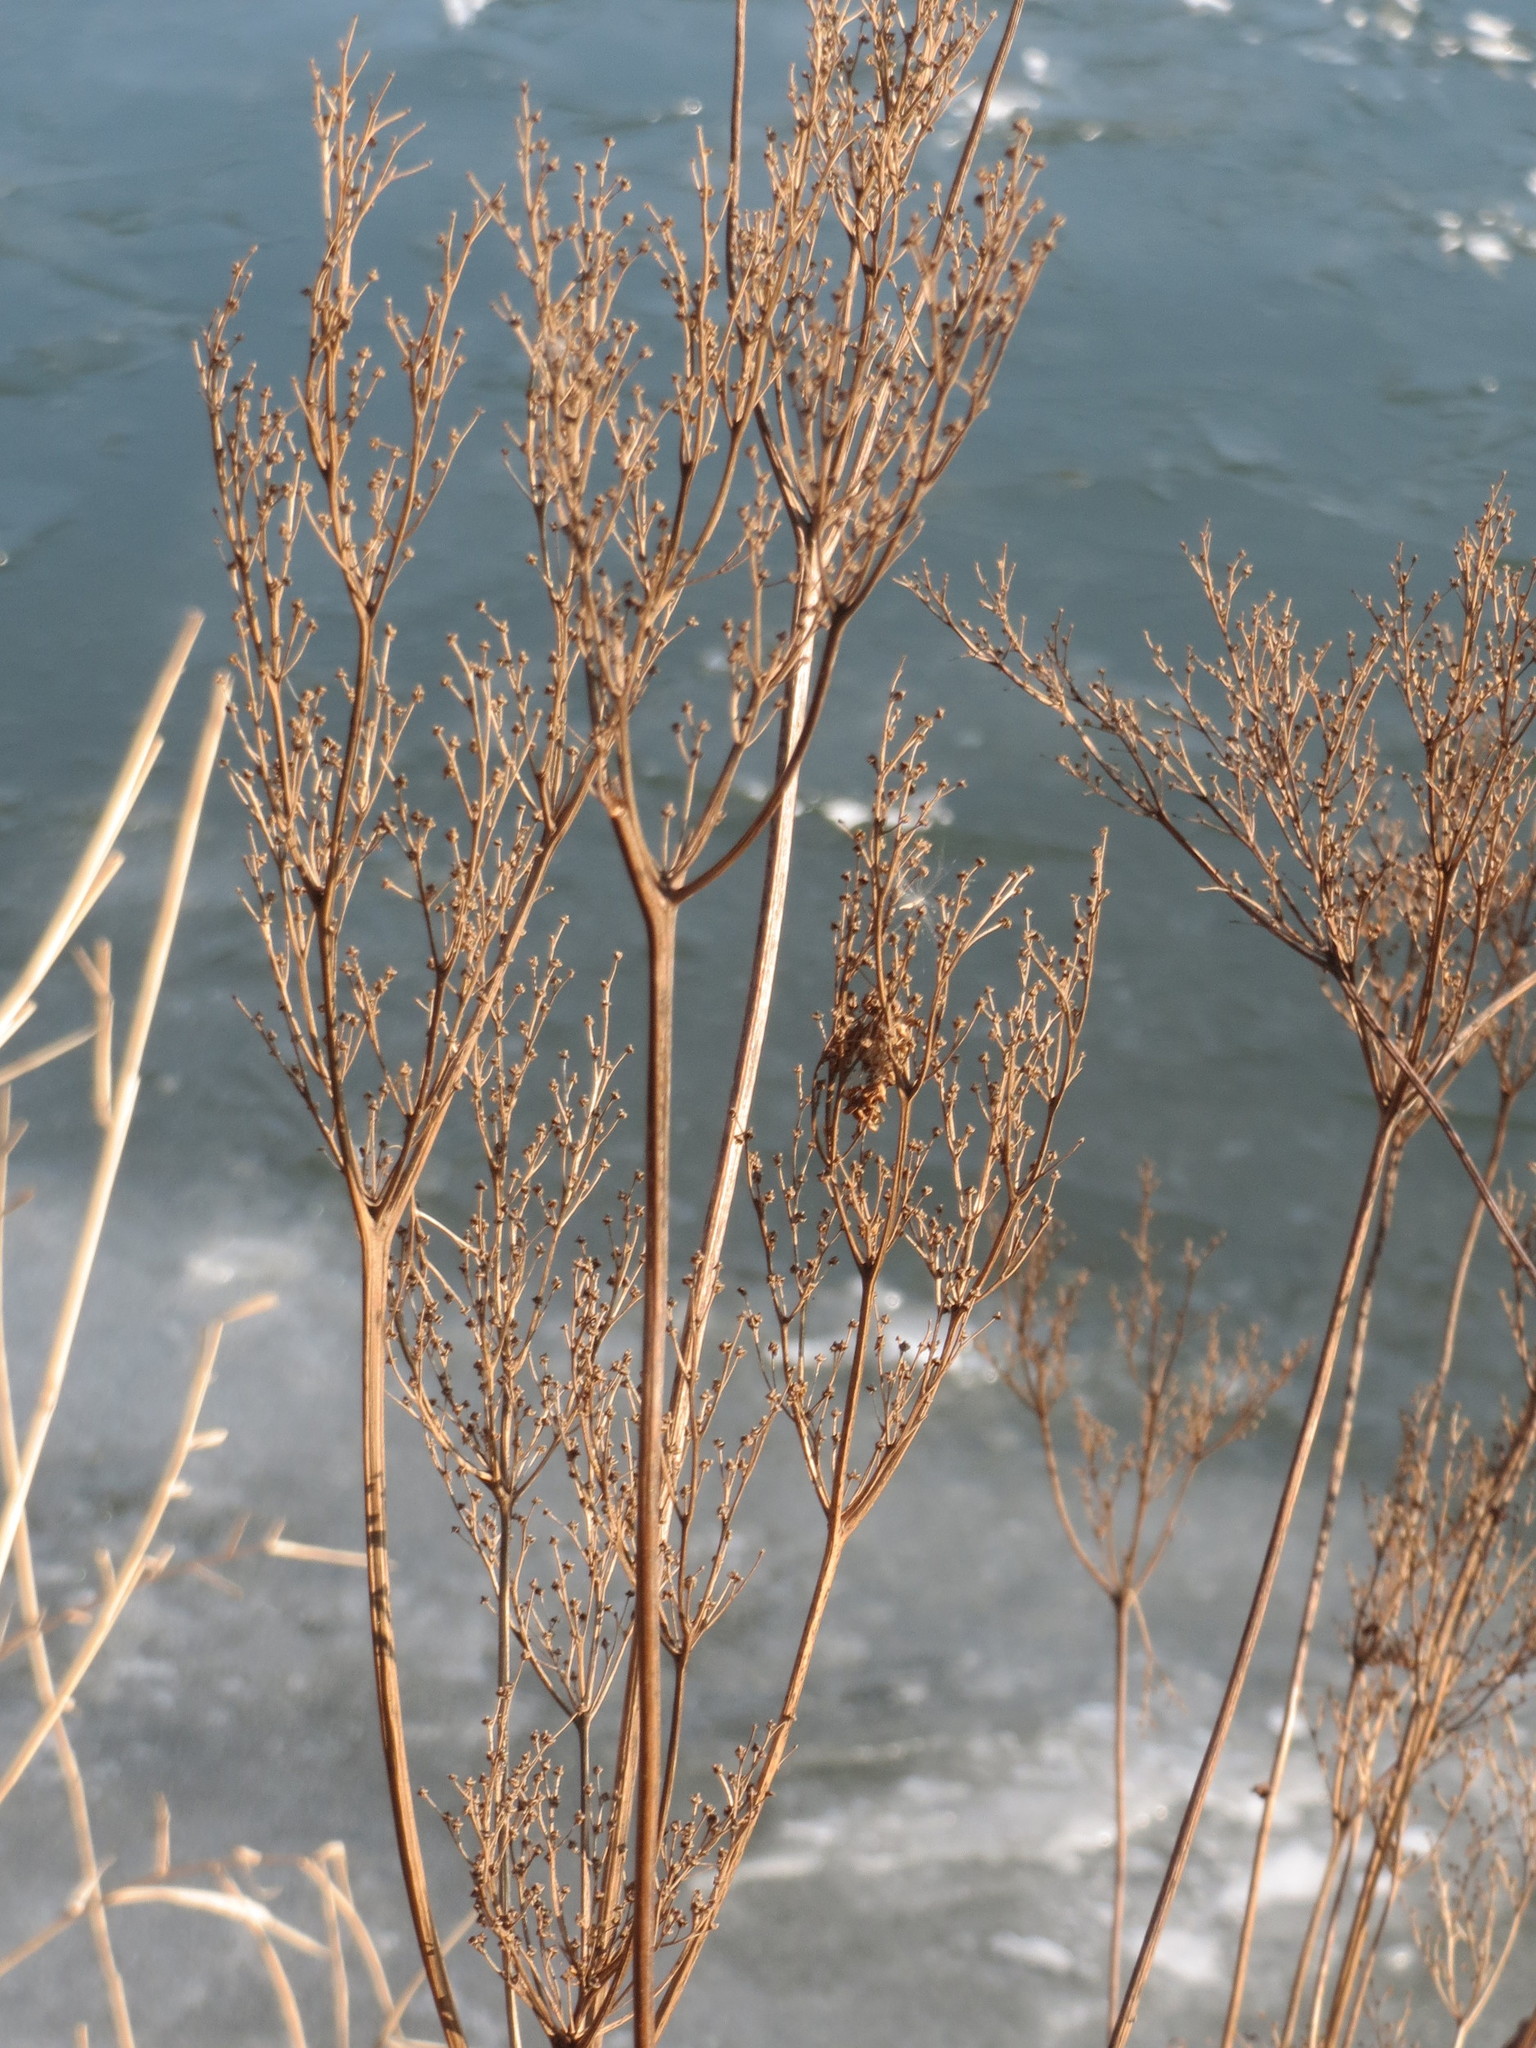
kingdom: Plantae
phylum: Tracheophyta
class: Magnoliopsida
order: Rosales
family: Rosaceae
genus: Filipendula
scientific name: Filipendula ulmaria
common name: Meadowsweet
